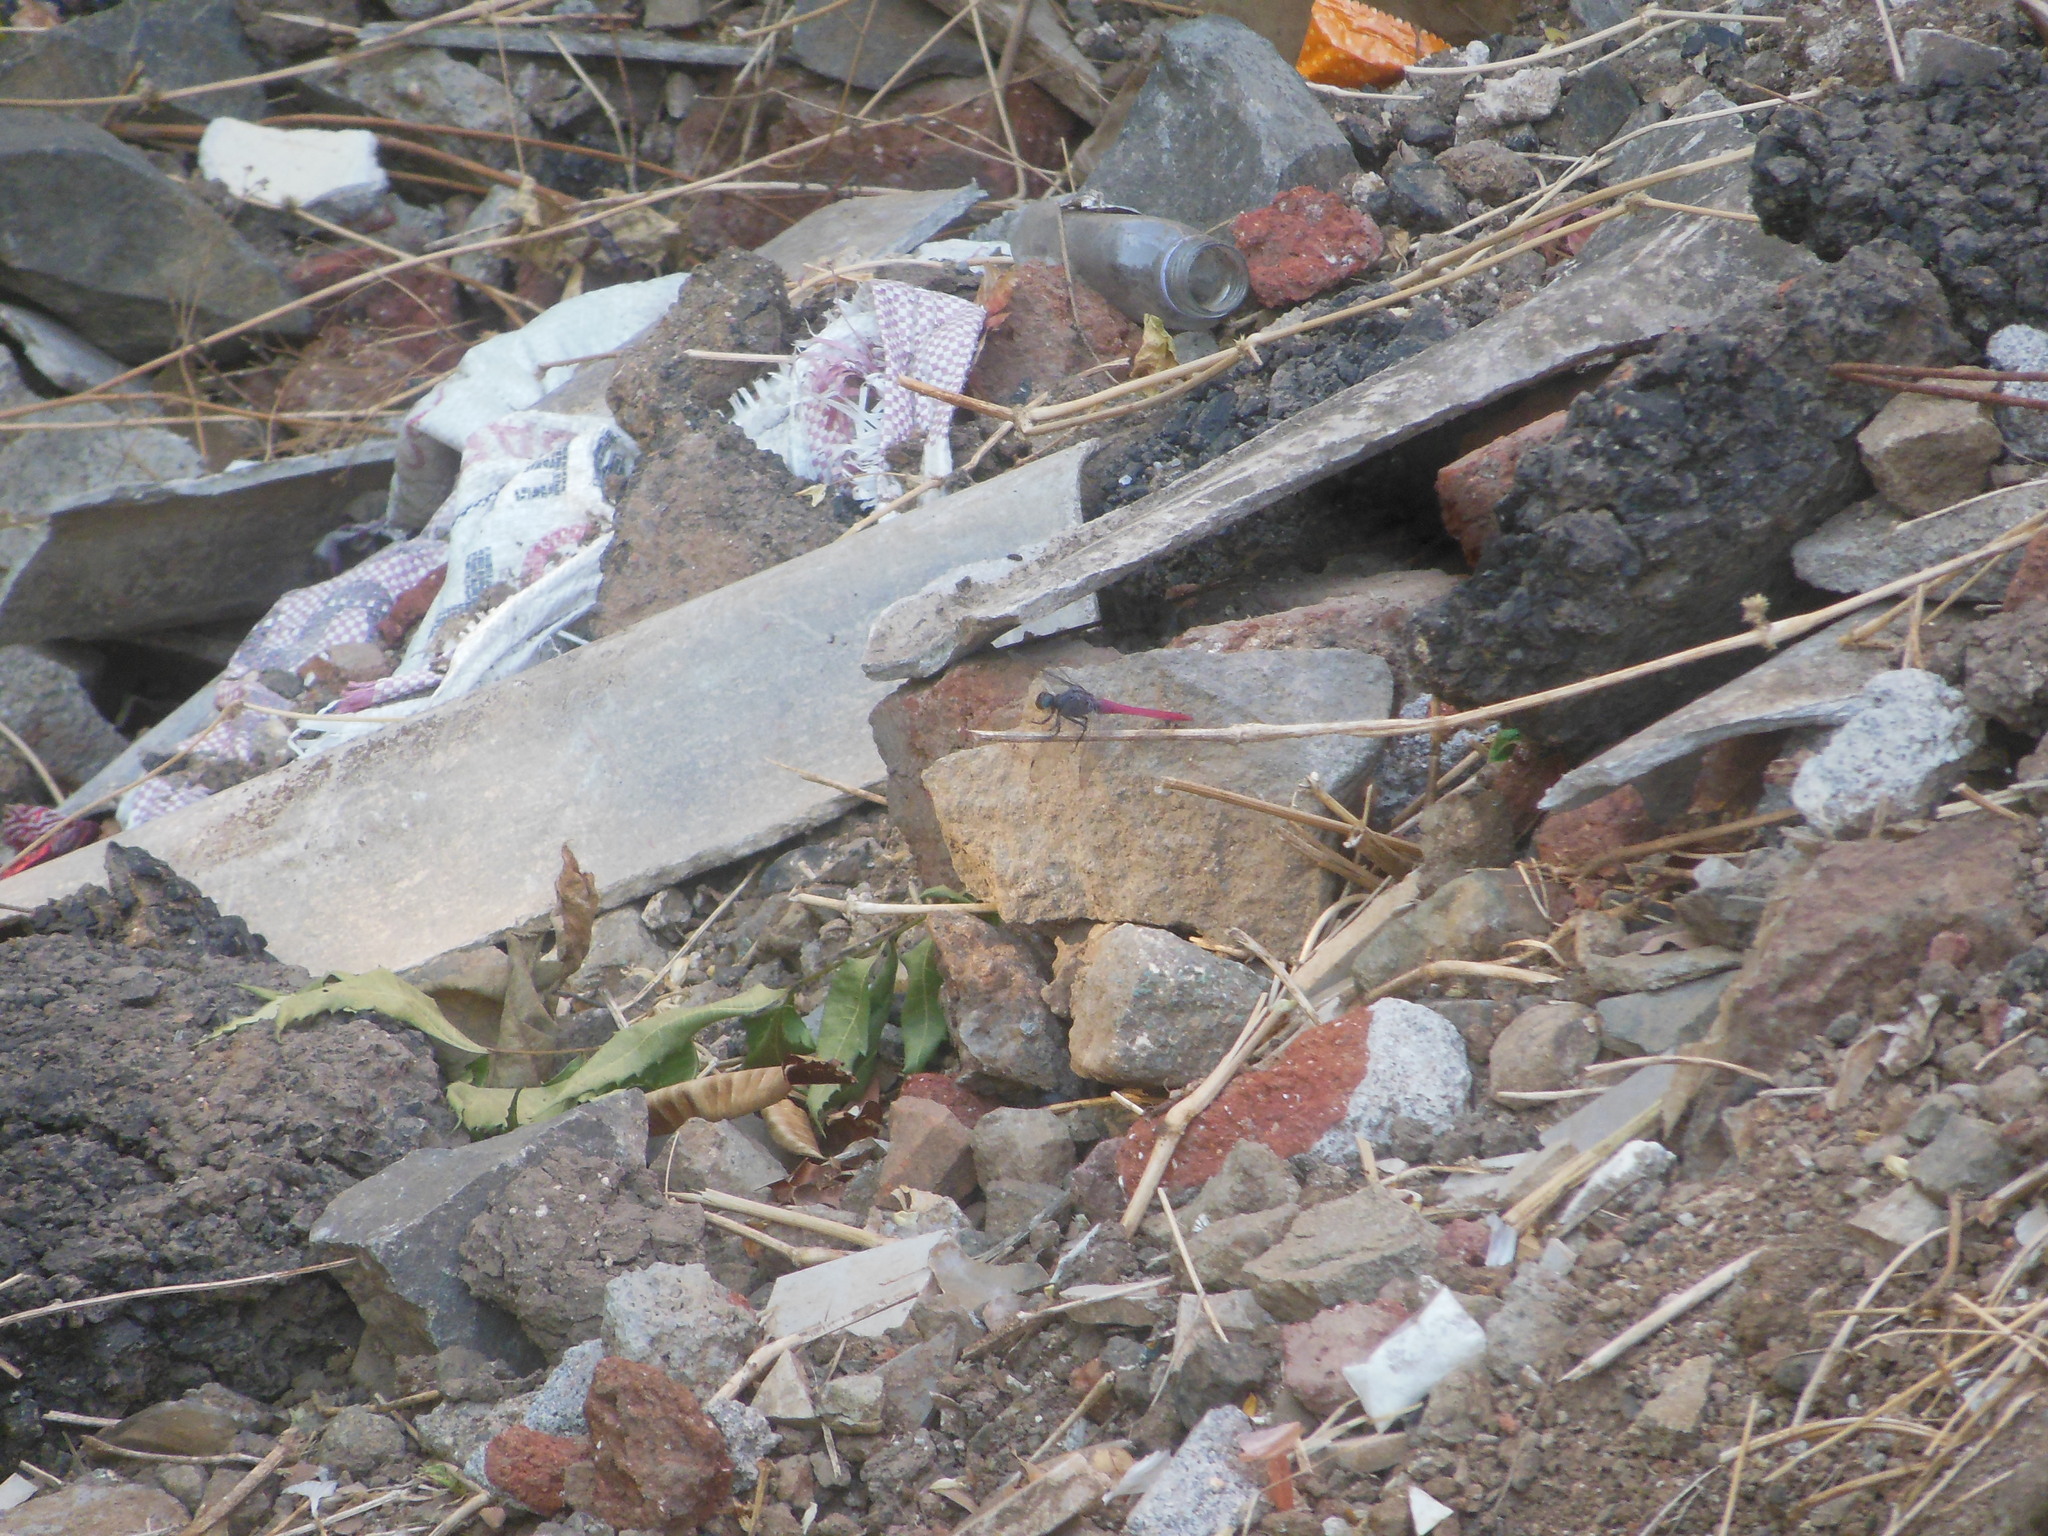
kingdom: Animalia
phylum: Arthropoda
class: Insecta
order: Odonata
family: Libellulidae
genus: Orthetrum
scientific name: Orthetrum pruinosum
